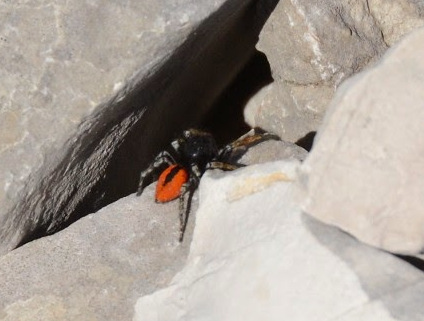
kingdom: Animalia
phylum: Arthropoda
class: Arachnida
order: Araneae
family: Salticidae
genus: Philaeus
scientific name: Philaeus chrysops
